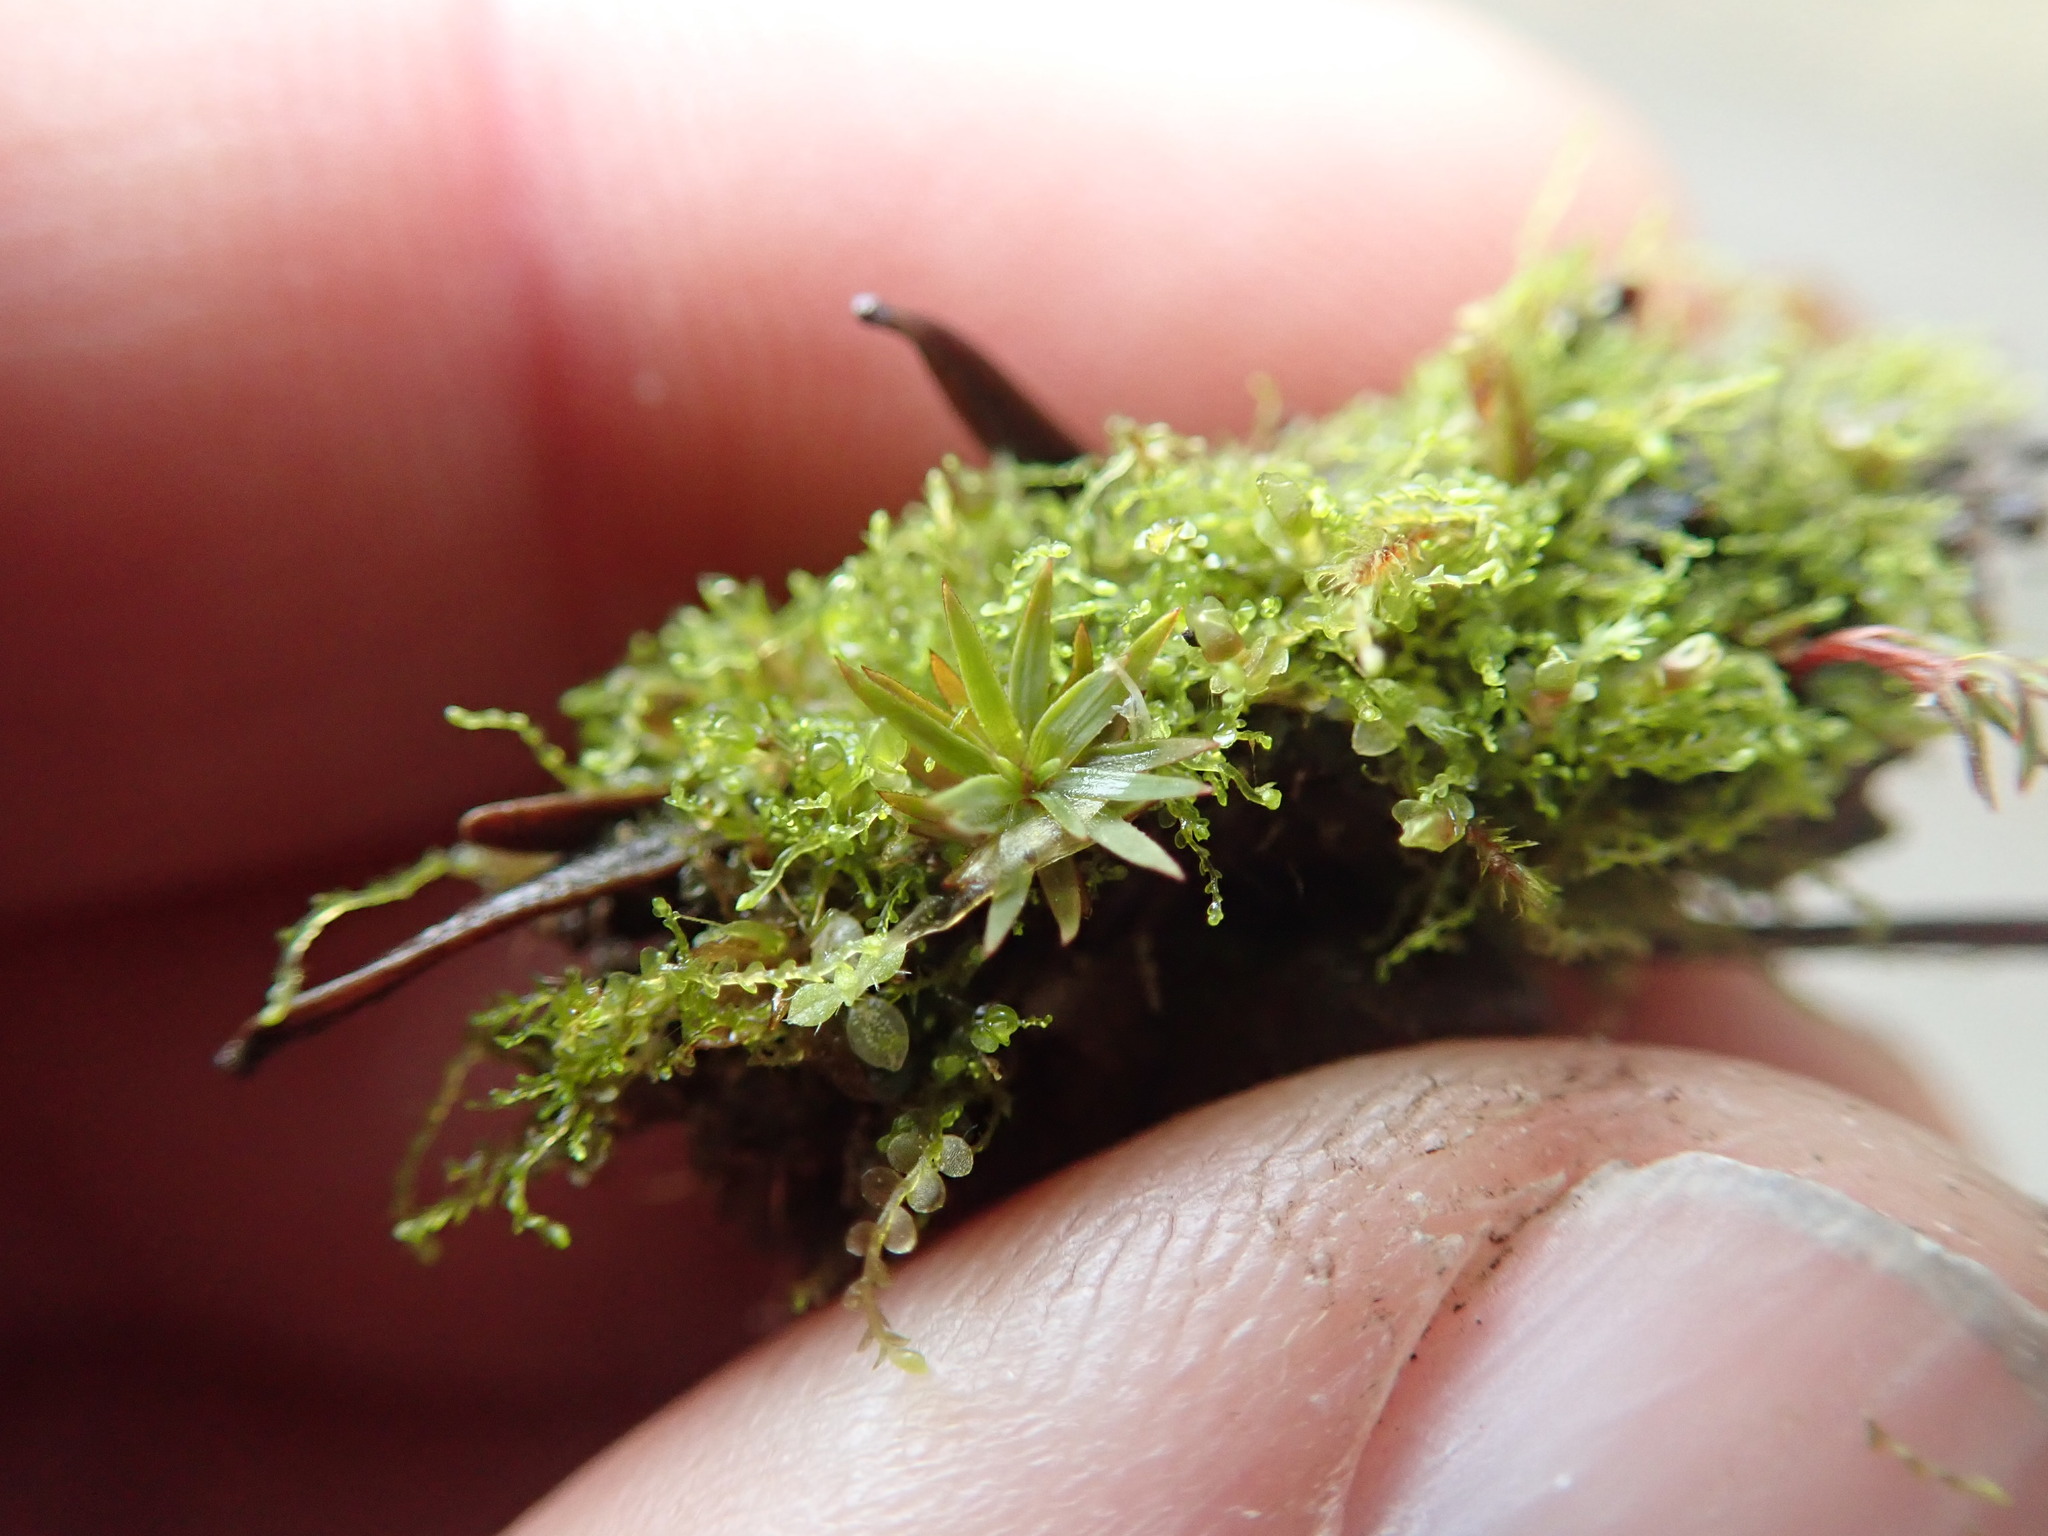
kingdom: Plantae
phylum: Bryophyta
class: Polytrichopsida
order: Polytrichales
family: Polytrichaceae
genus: Pogonatum
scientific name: Pogonatum urnigerum
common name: Urn hair moss
